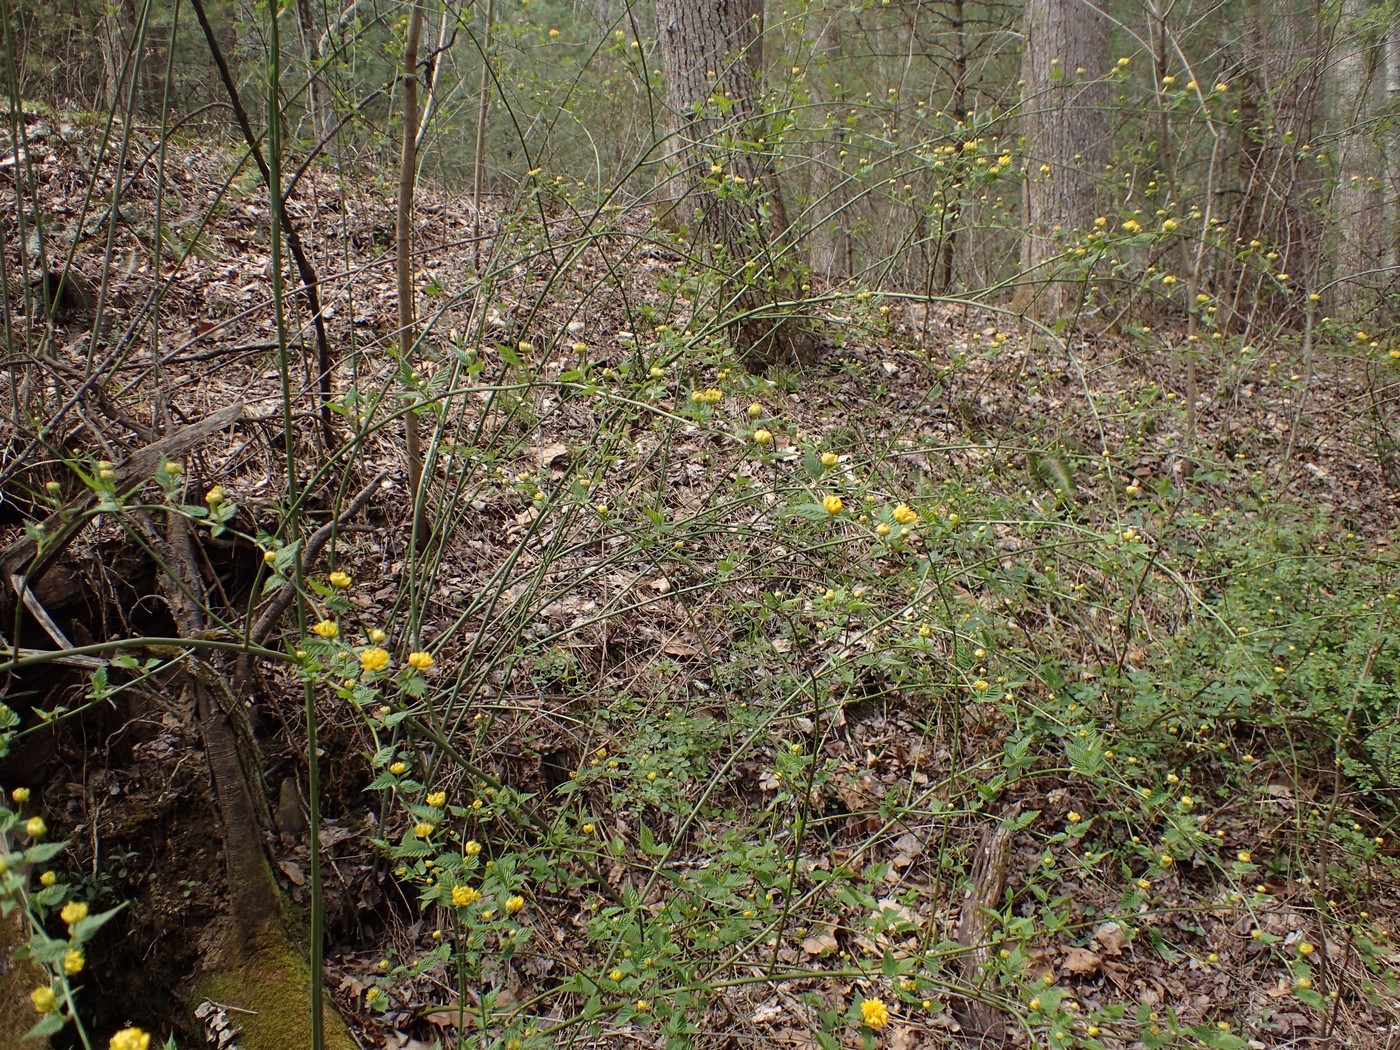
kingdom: Plantae
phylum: Tracheophyta
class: Magnoliopsida
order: Rosales
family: Rosaceae
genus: Kerria
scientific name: Kerria japonica
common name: Japanese kerria
